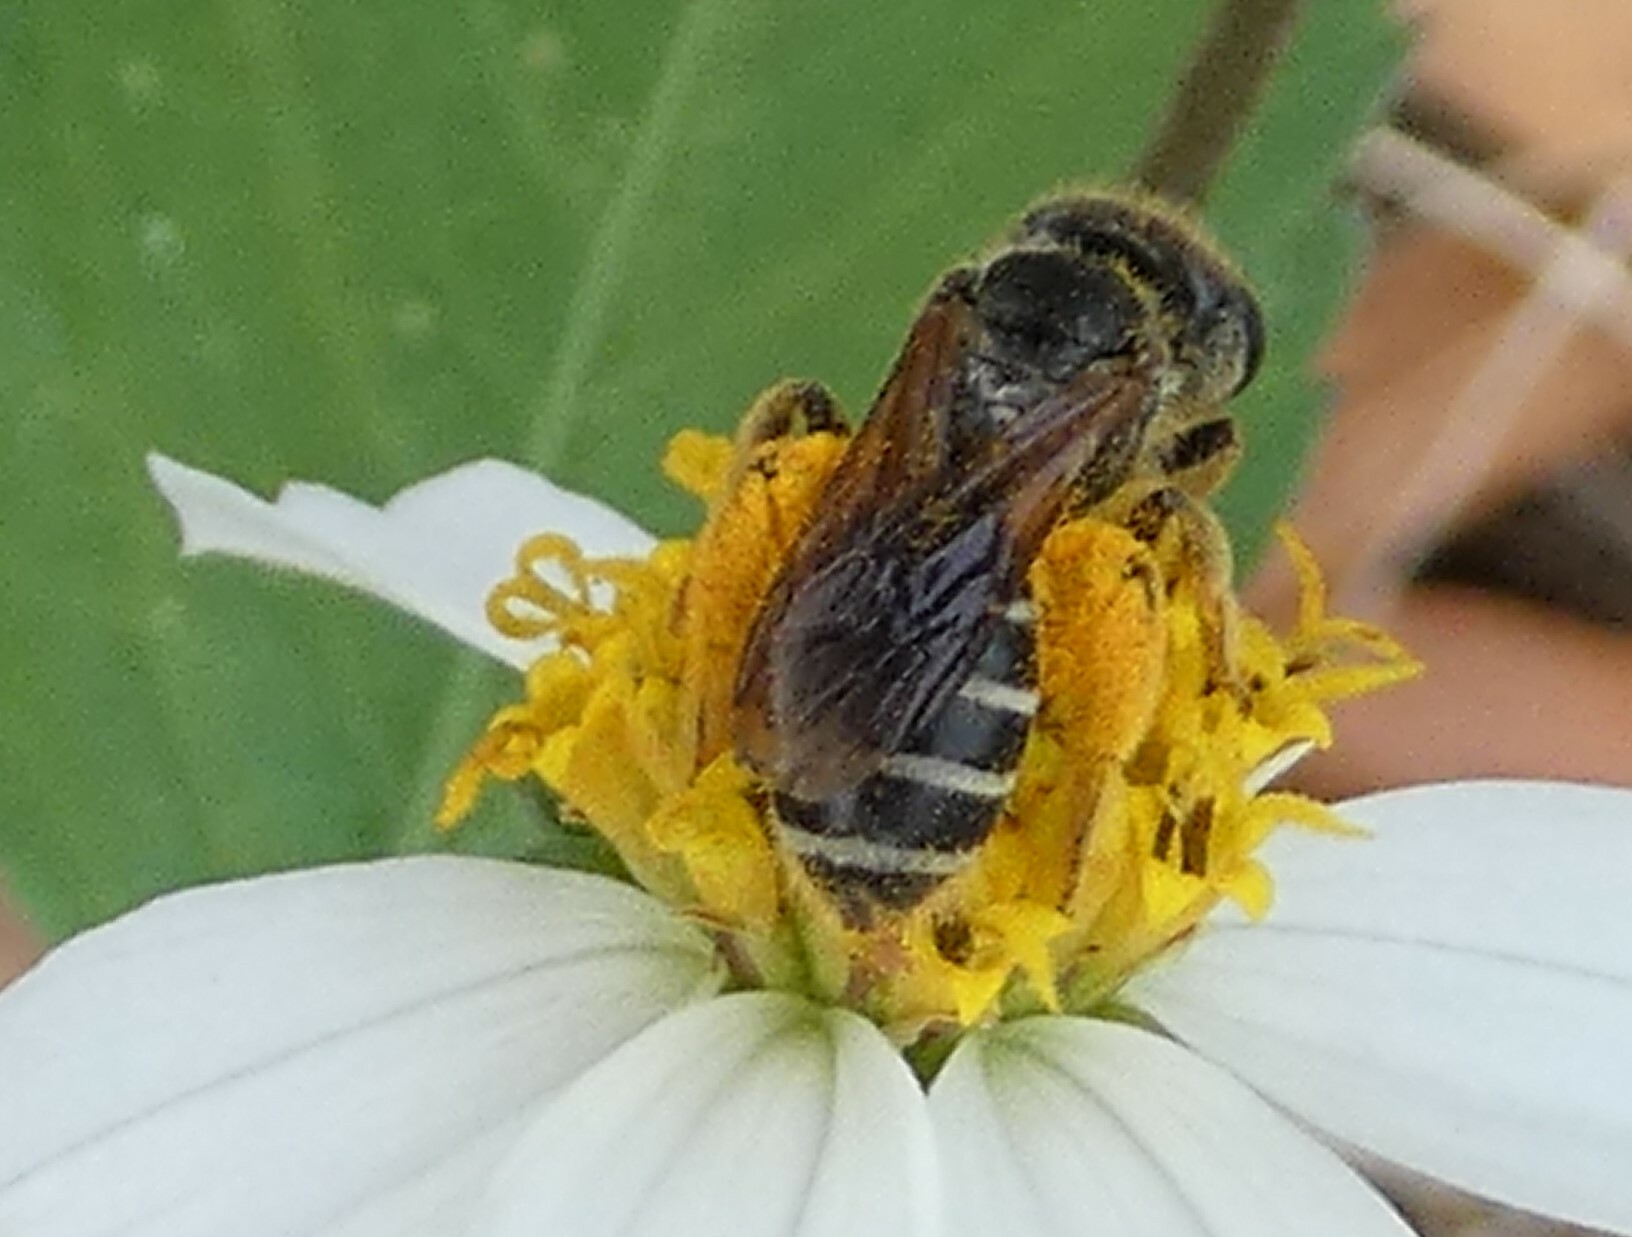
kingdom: Animalia
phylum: Arthropoda
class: Insecta
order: Hymenoptera
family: Halictidae
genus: Halictus
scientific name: Halictus poeyi
